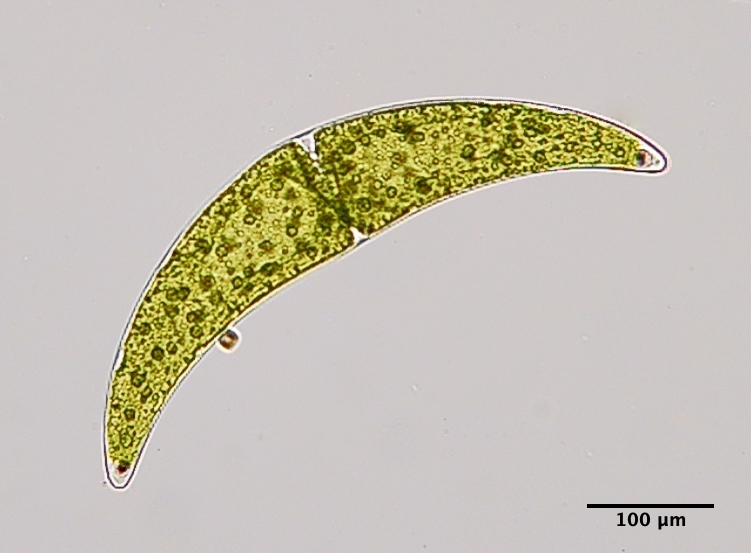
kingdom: Plantae
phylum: Charophyta
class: Zygnematophyceae
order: Zygnematales
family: Closteriaceae
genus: Closterium
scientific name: Closterium ehrenbergii
